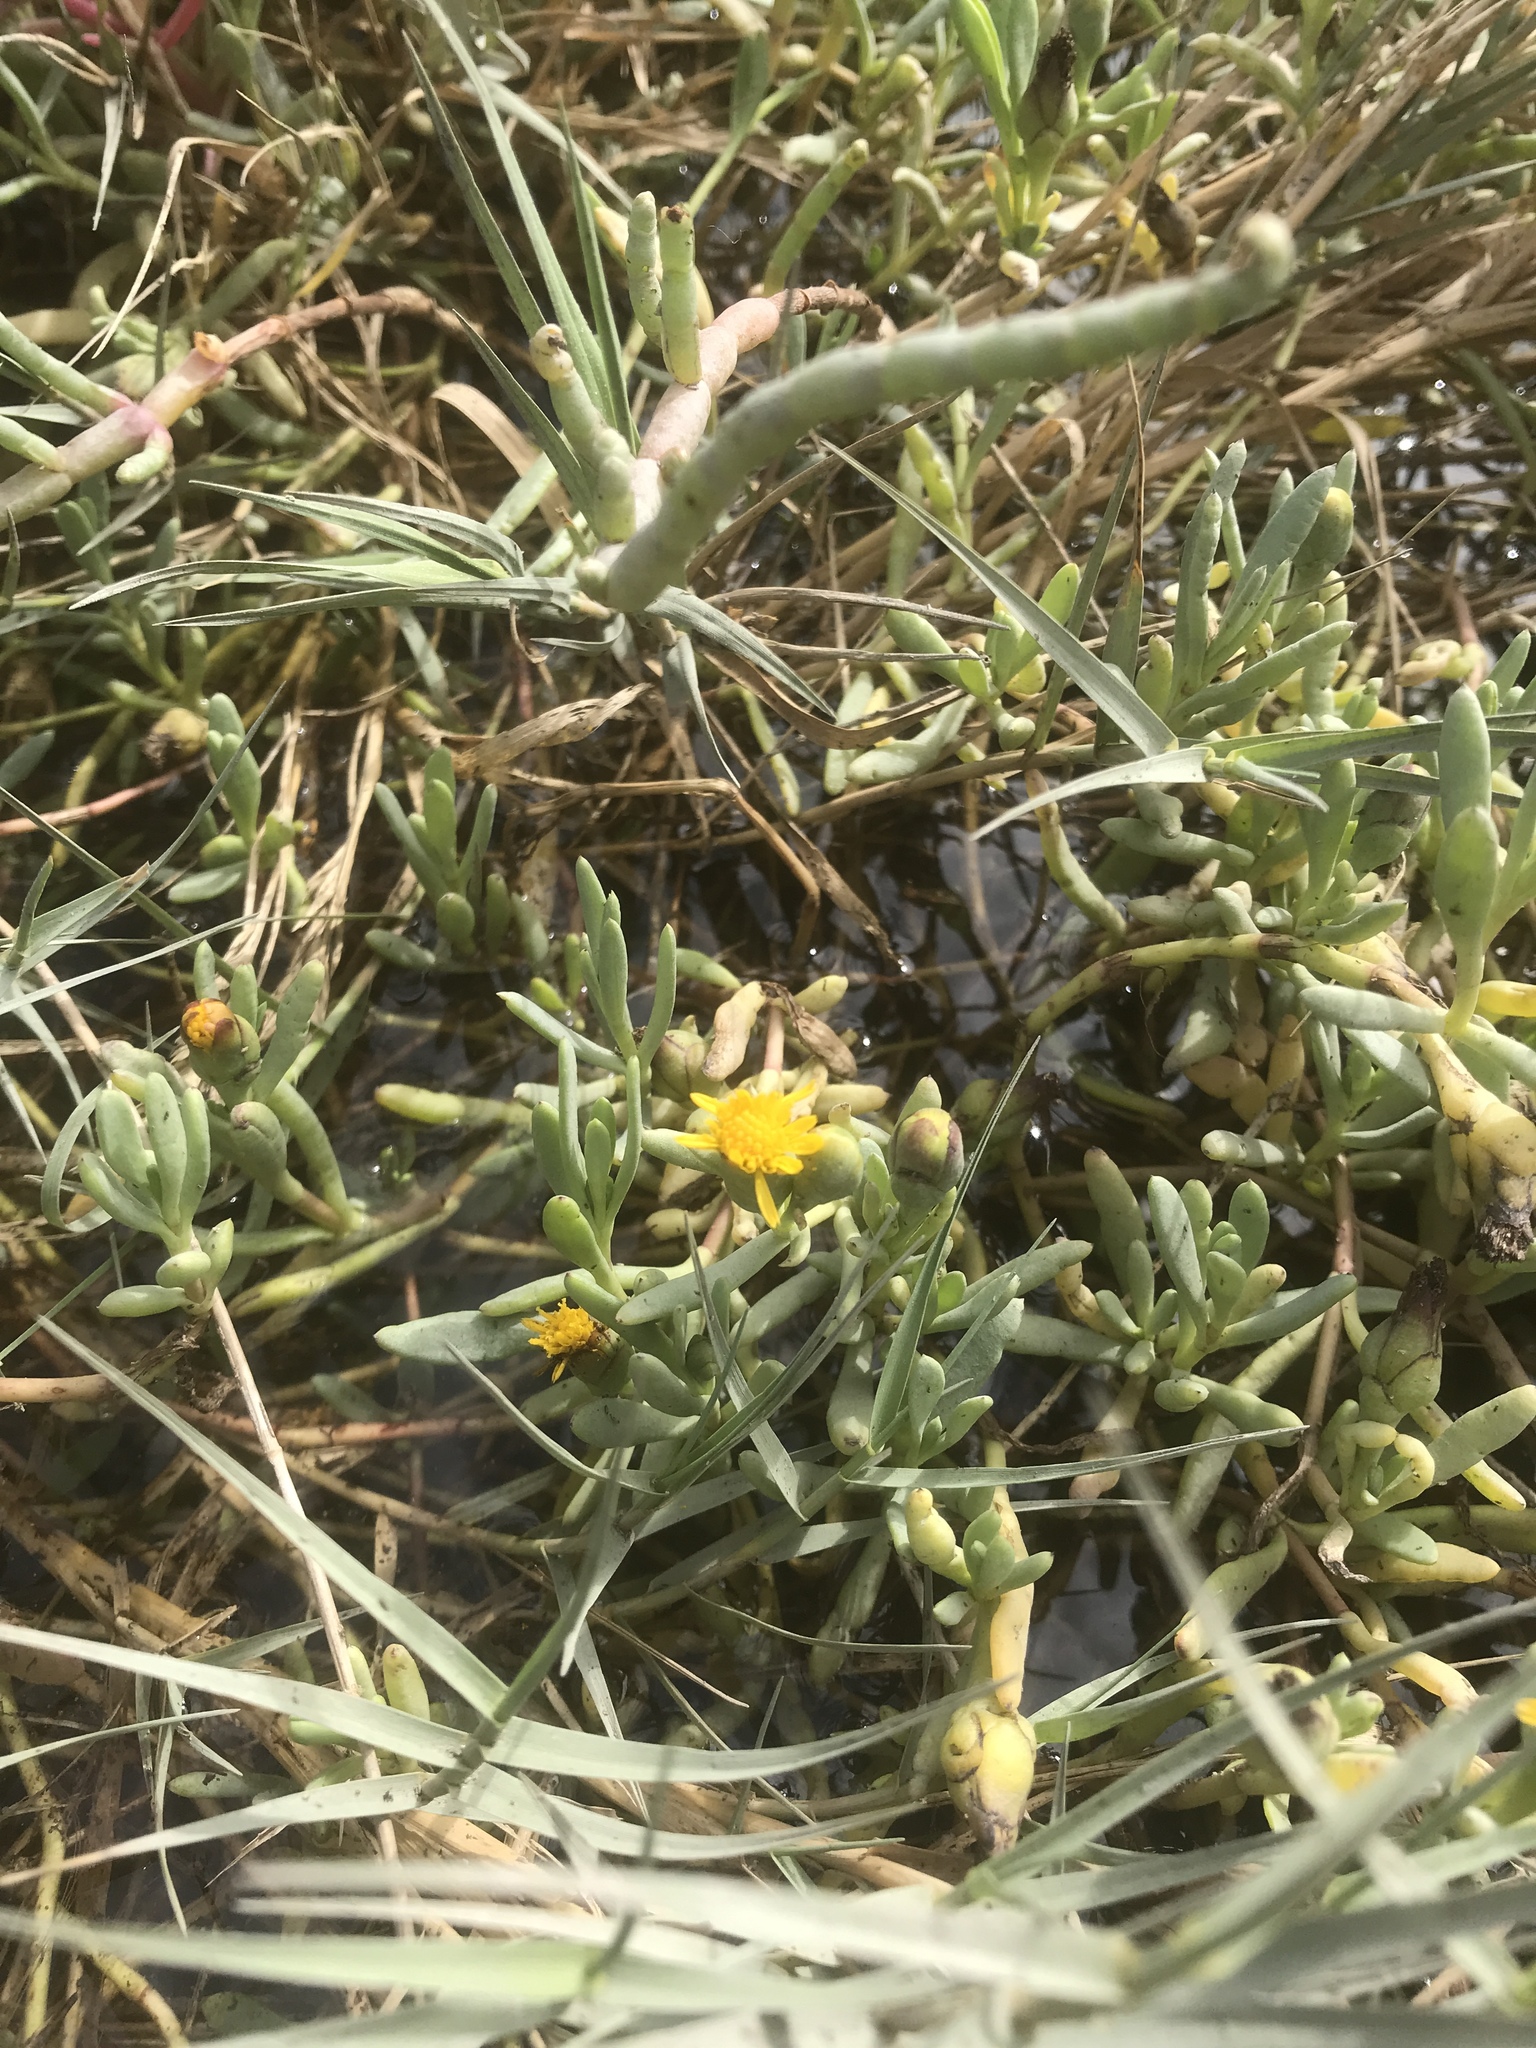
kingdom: Plantae
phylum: Tracheophyta
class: Magnoliopsida
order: Asterales
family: Asteraceae
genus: Jaumea
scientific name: Jaumea carnosa
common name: Fleshy jaumea
